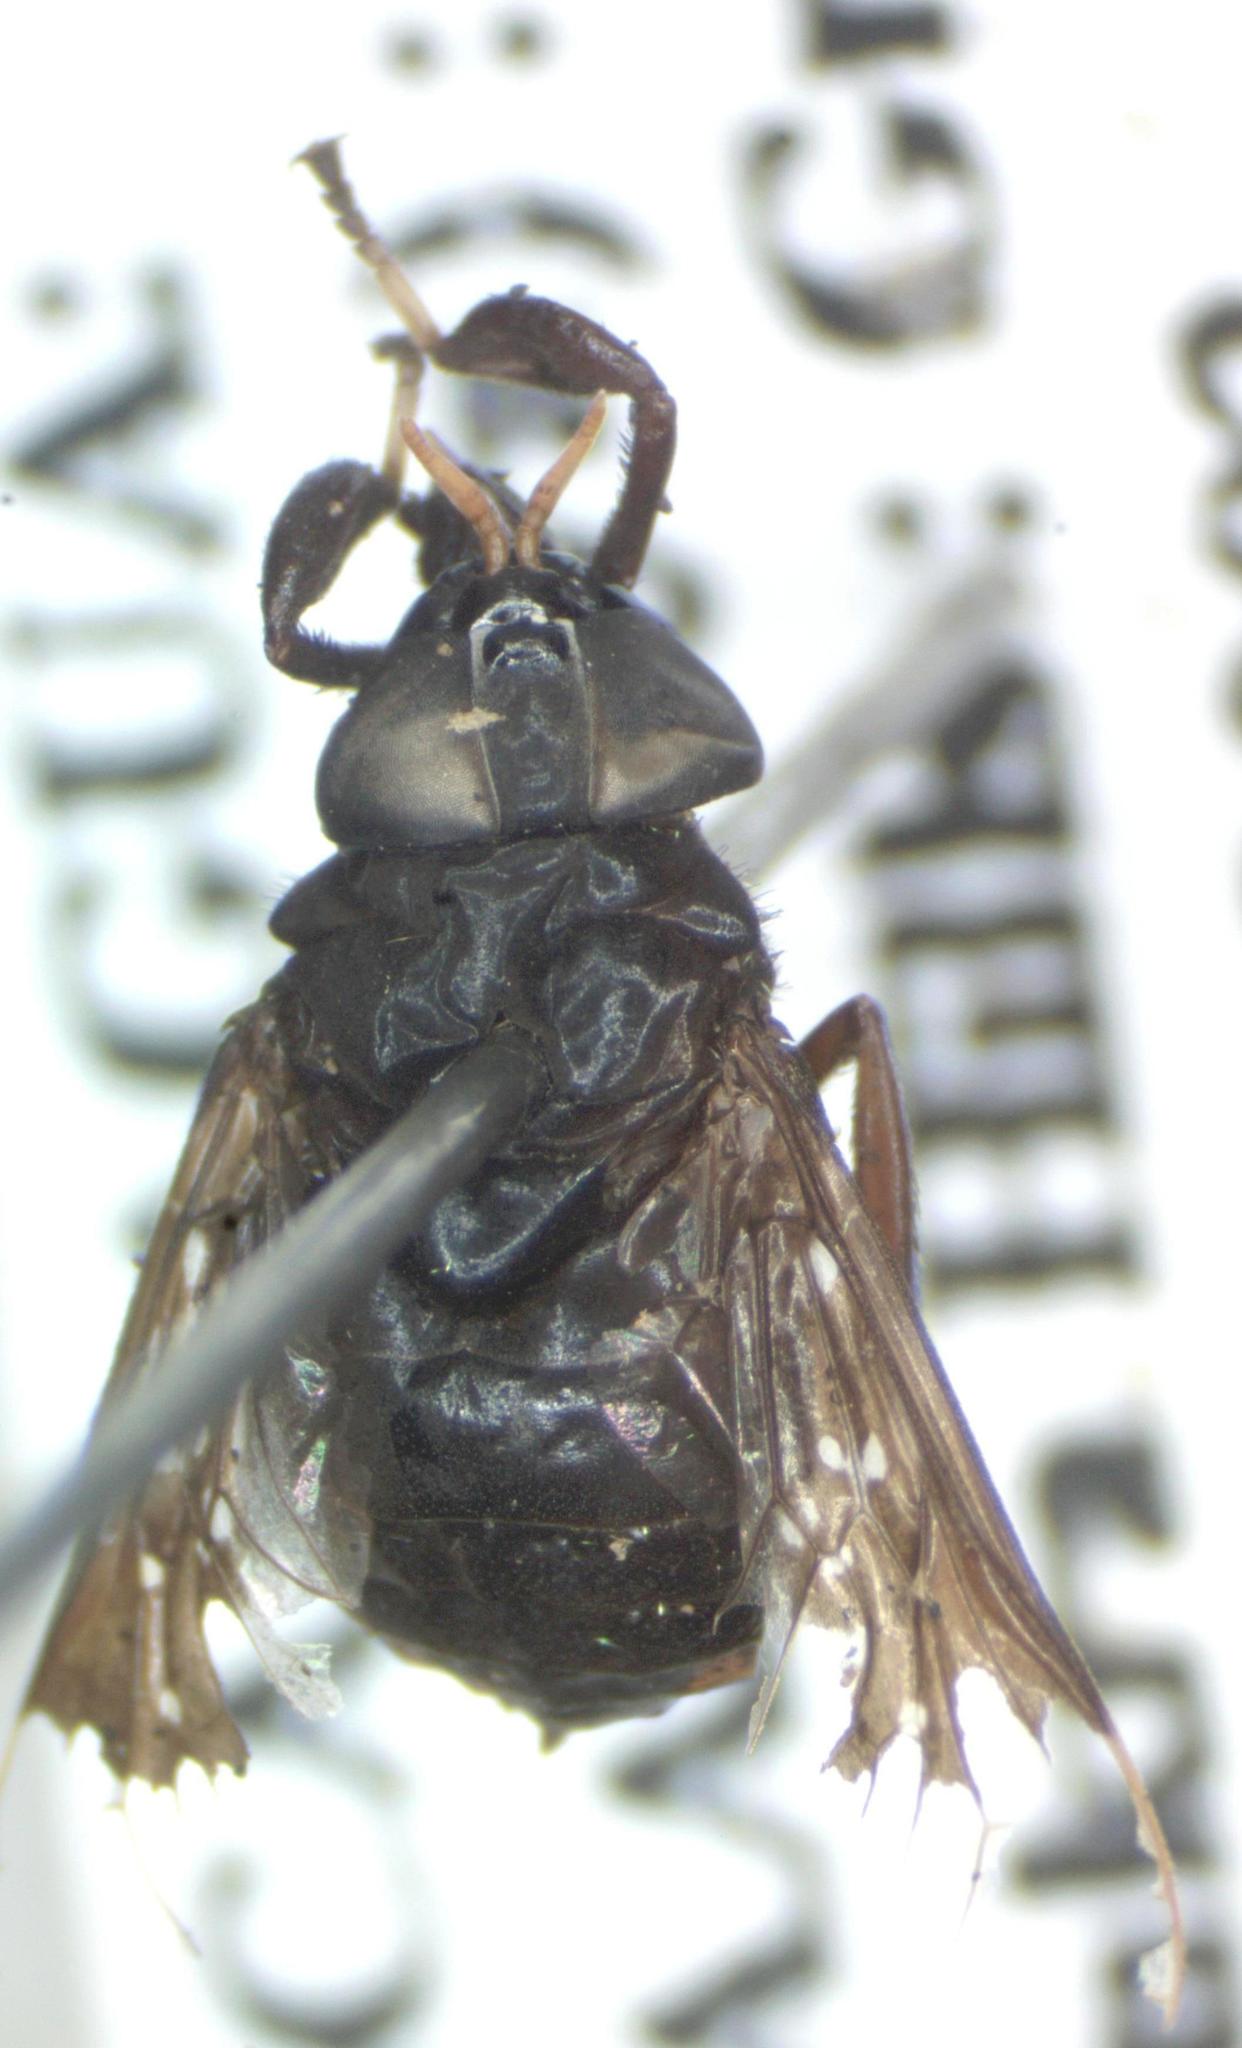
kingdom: Animalia
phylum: Arthropoda
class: Insecta
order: Diptera
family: Tabanidae
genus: Lepiselaga
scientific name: Lepiselaga crassipes
